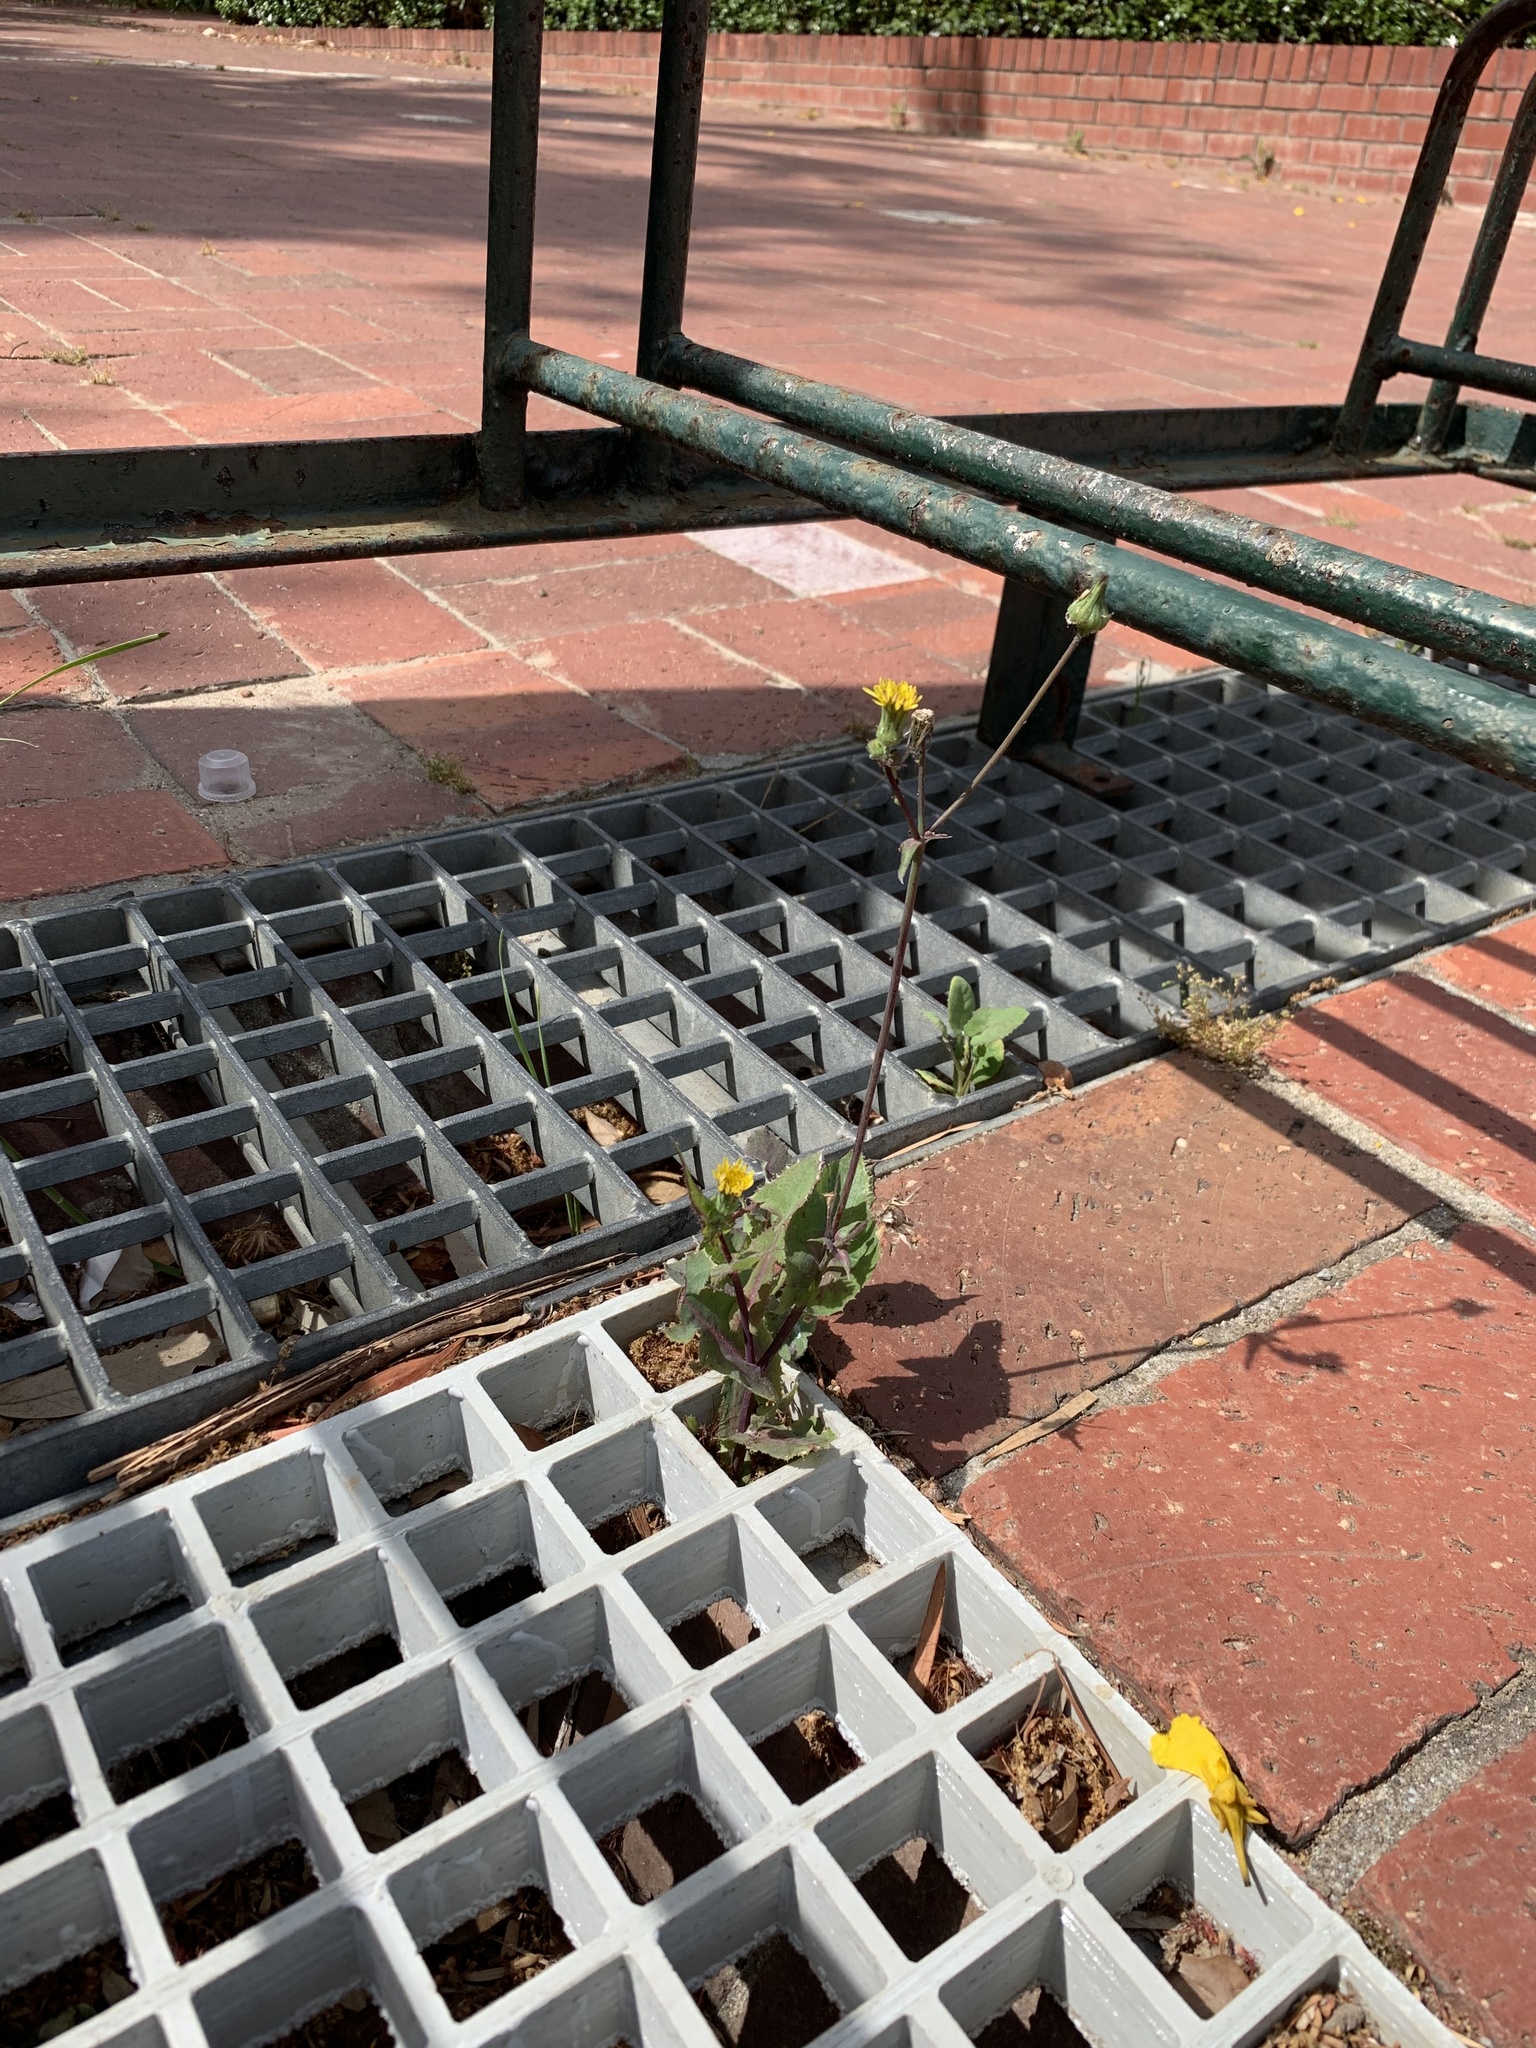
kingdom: Plantae
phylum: Tracheophyta
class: Magnoliopsida
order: Asterales
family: Asteraceae
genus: Sonchus
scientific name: Sonchus oleraceus
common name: Common sowthistle
